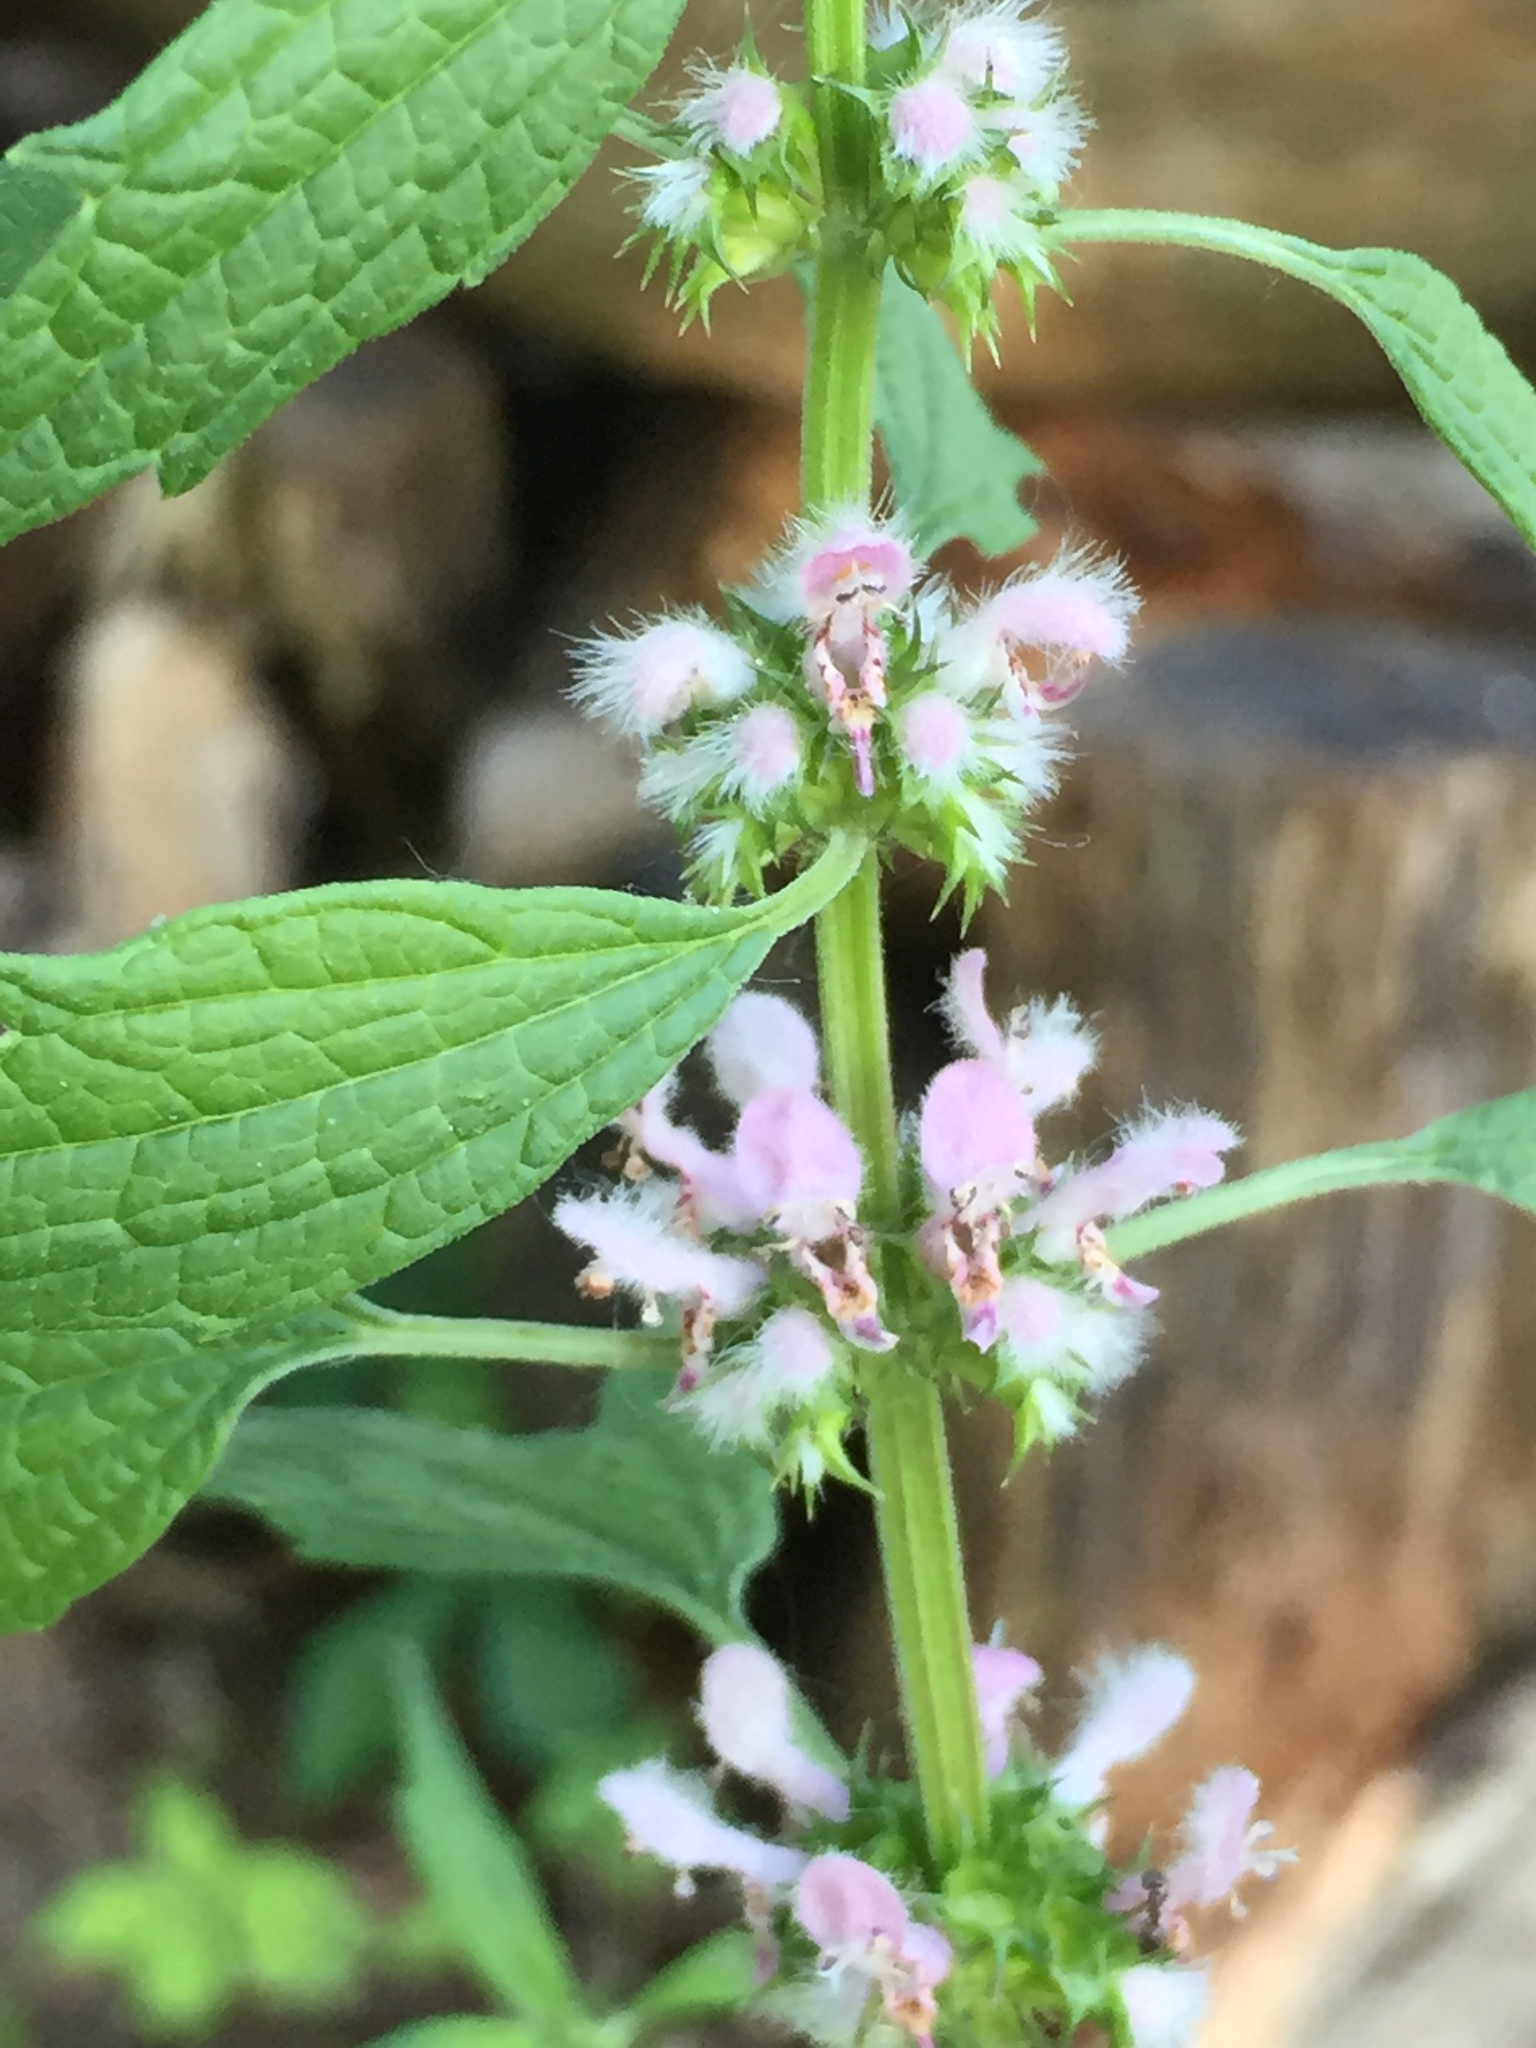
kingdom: Plantae
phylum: Tracheophyta
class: Magnoliopsida
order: Lamiales
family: Lamiaceae
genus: Leonurus
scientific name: Leonurus cardiaca
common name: Motherwort
